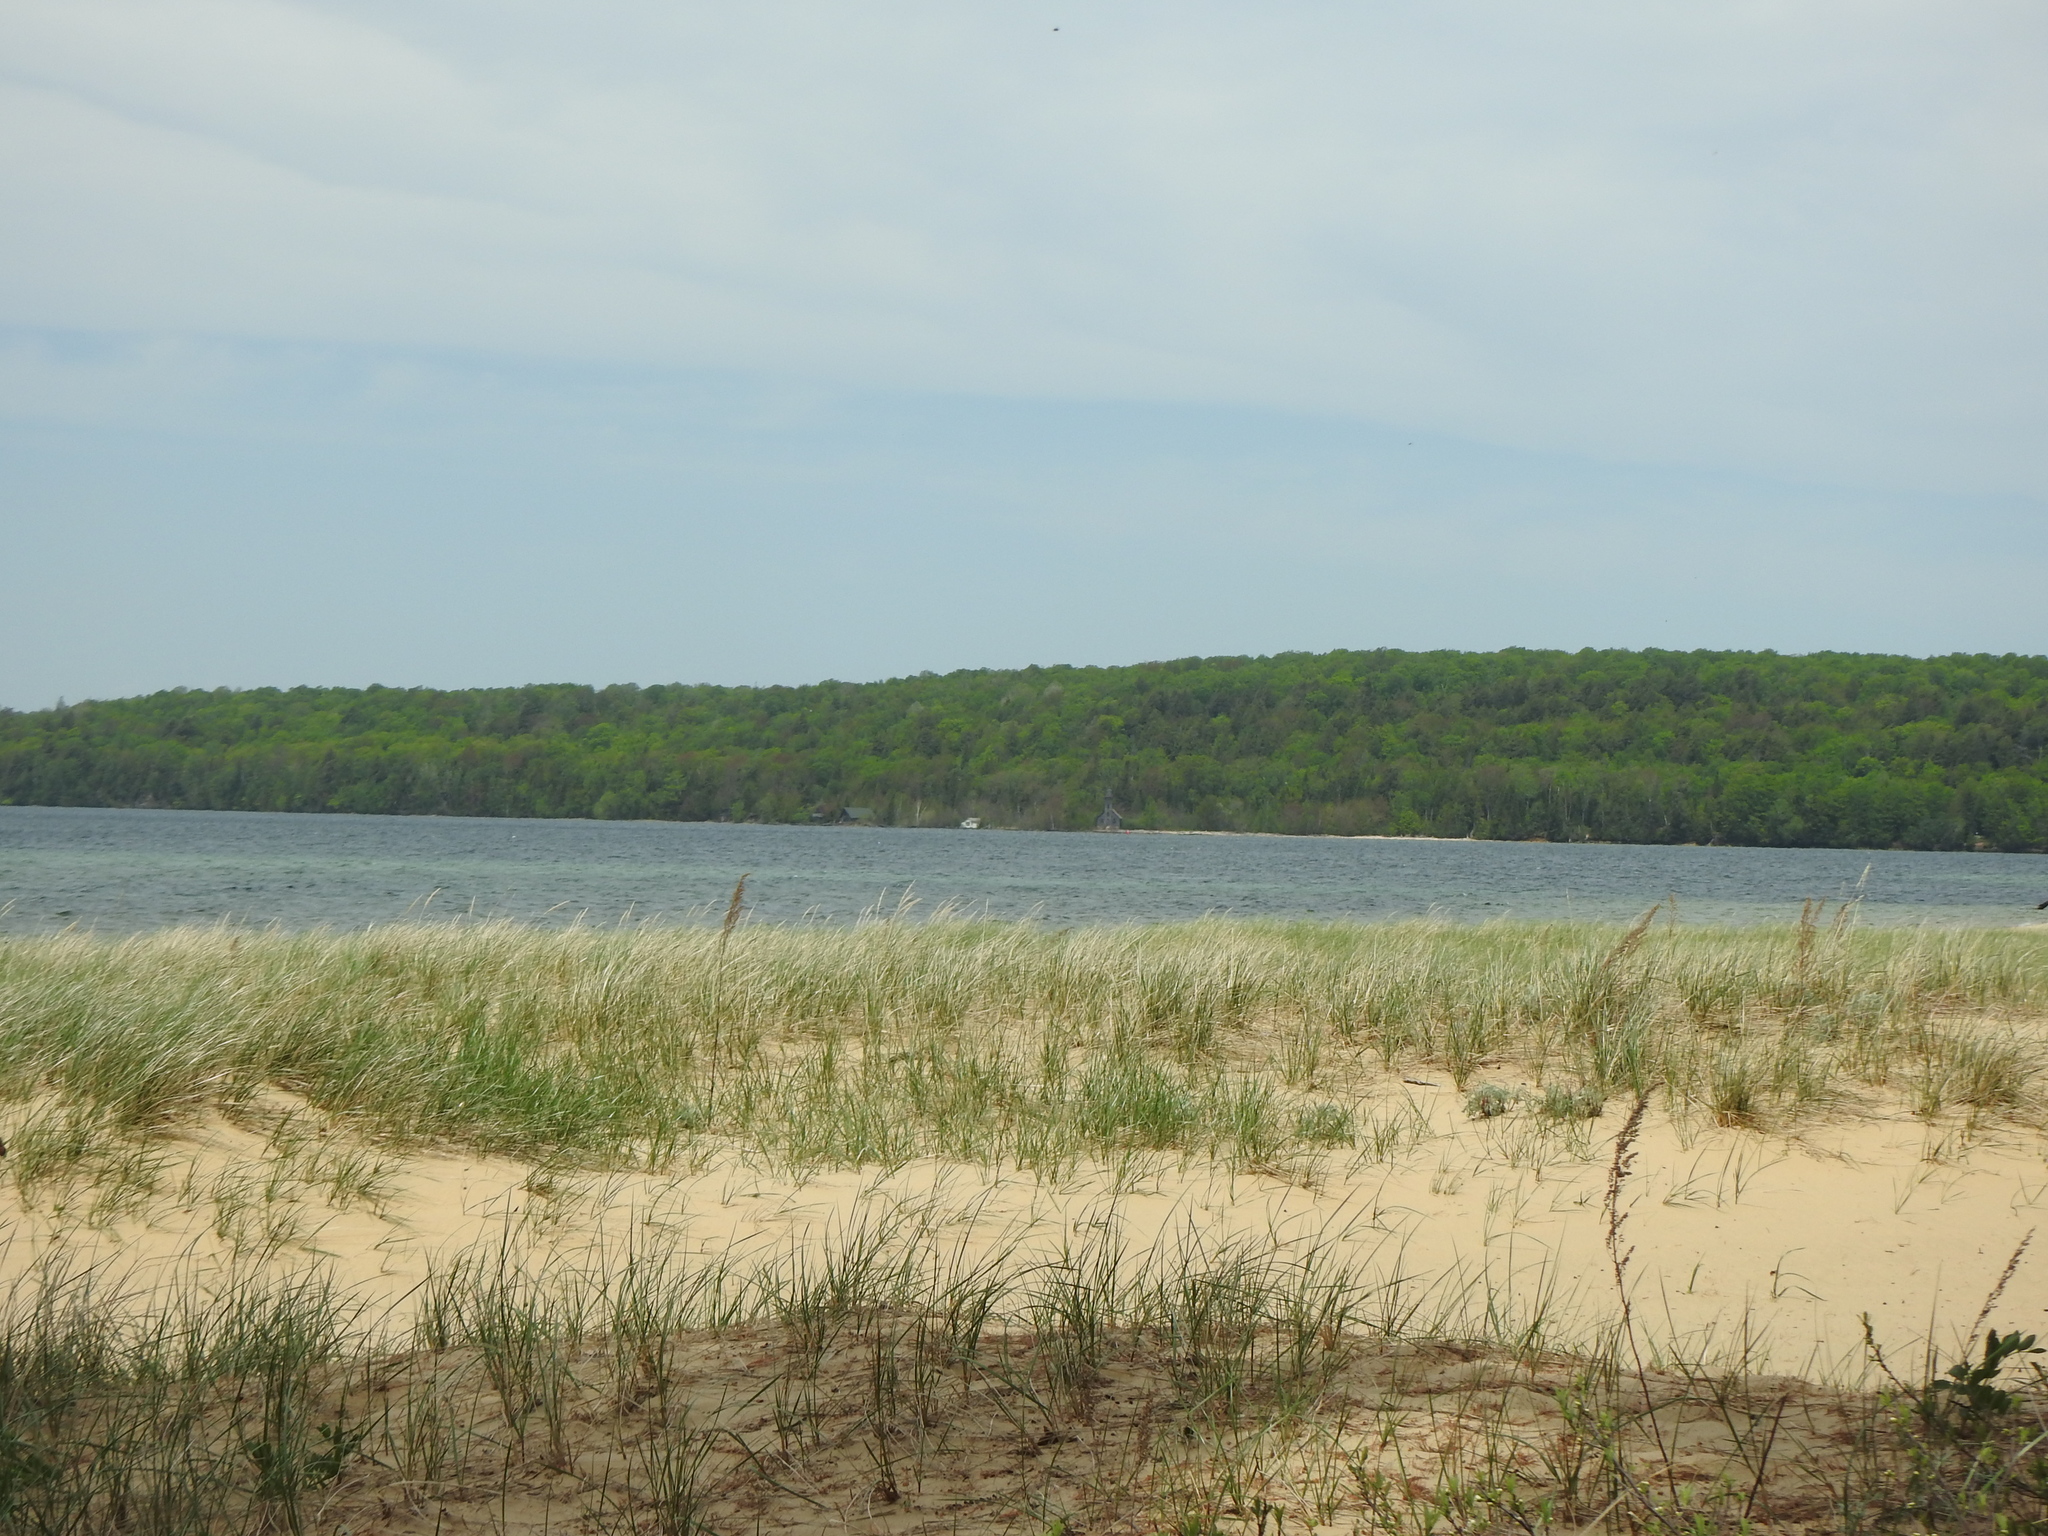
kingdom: Plantae
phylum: Tracheophyta
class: Liliopsida
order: Poales
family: Poaceae
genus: Calamagrostis
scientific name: Calamagrostis breviligulata
